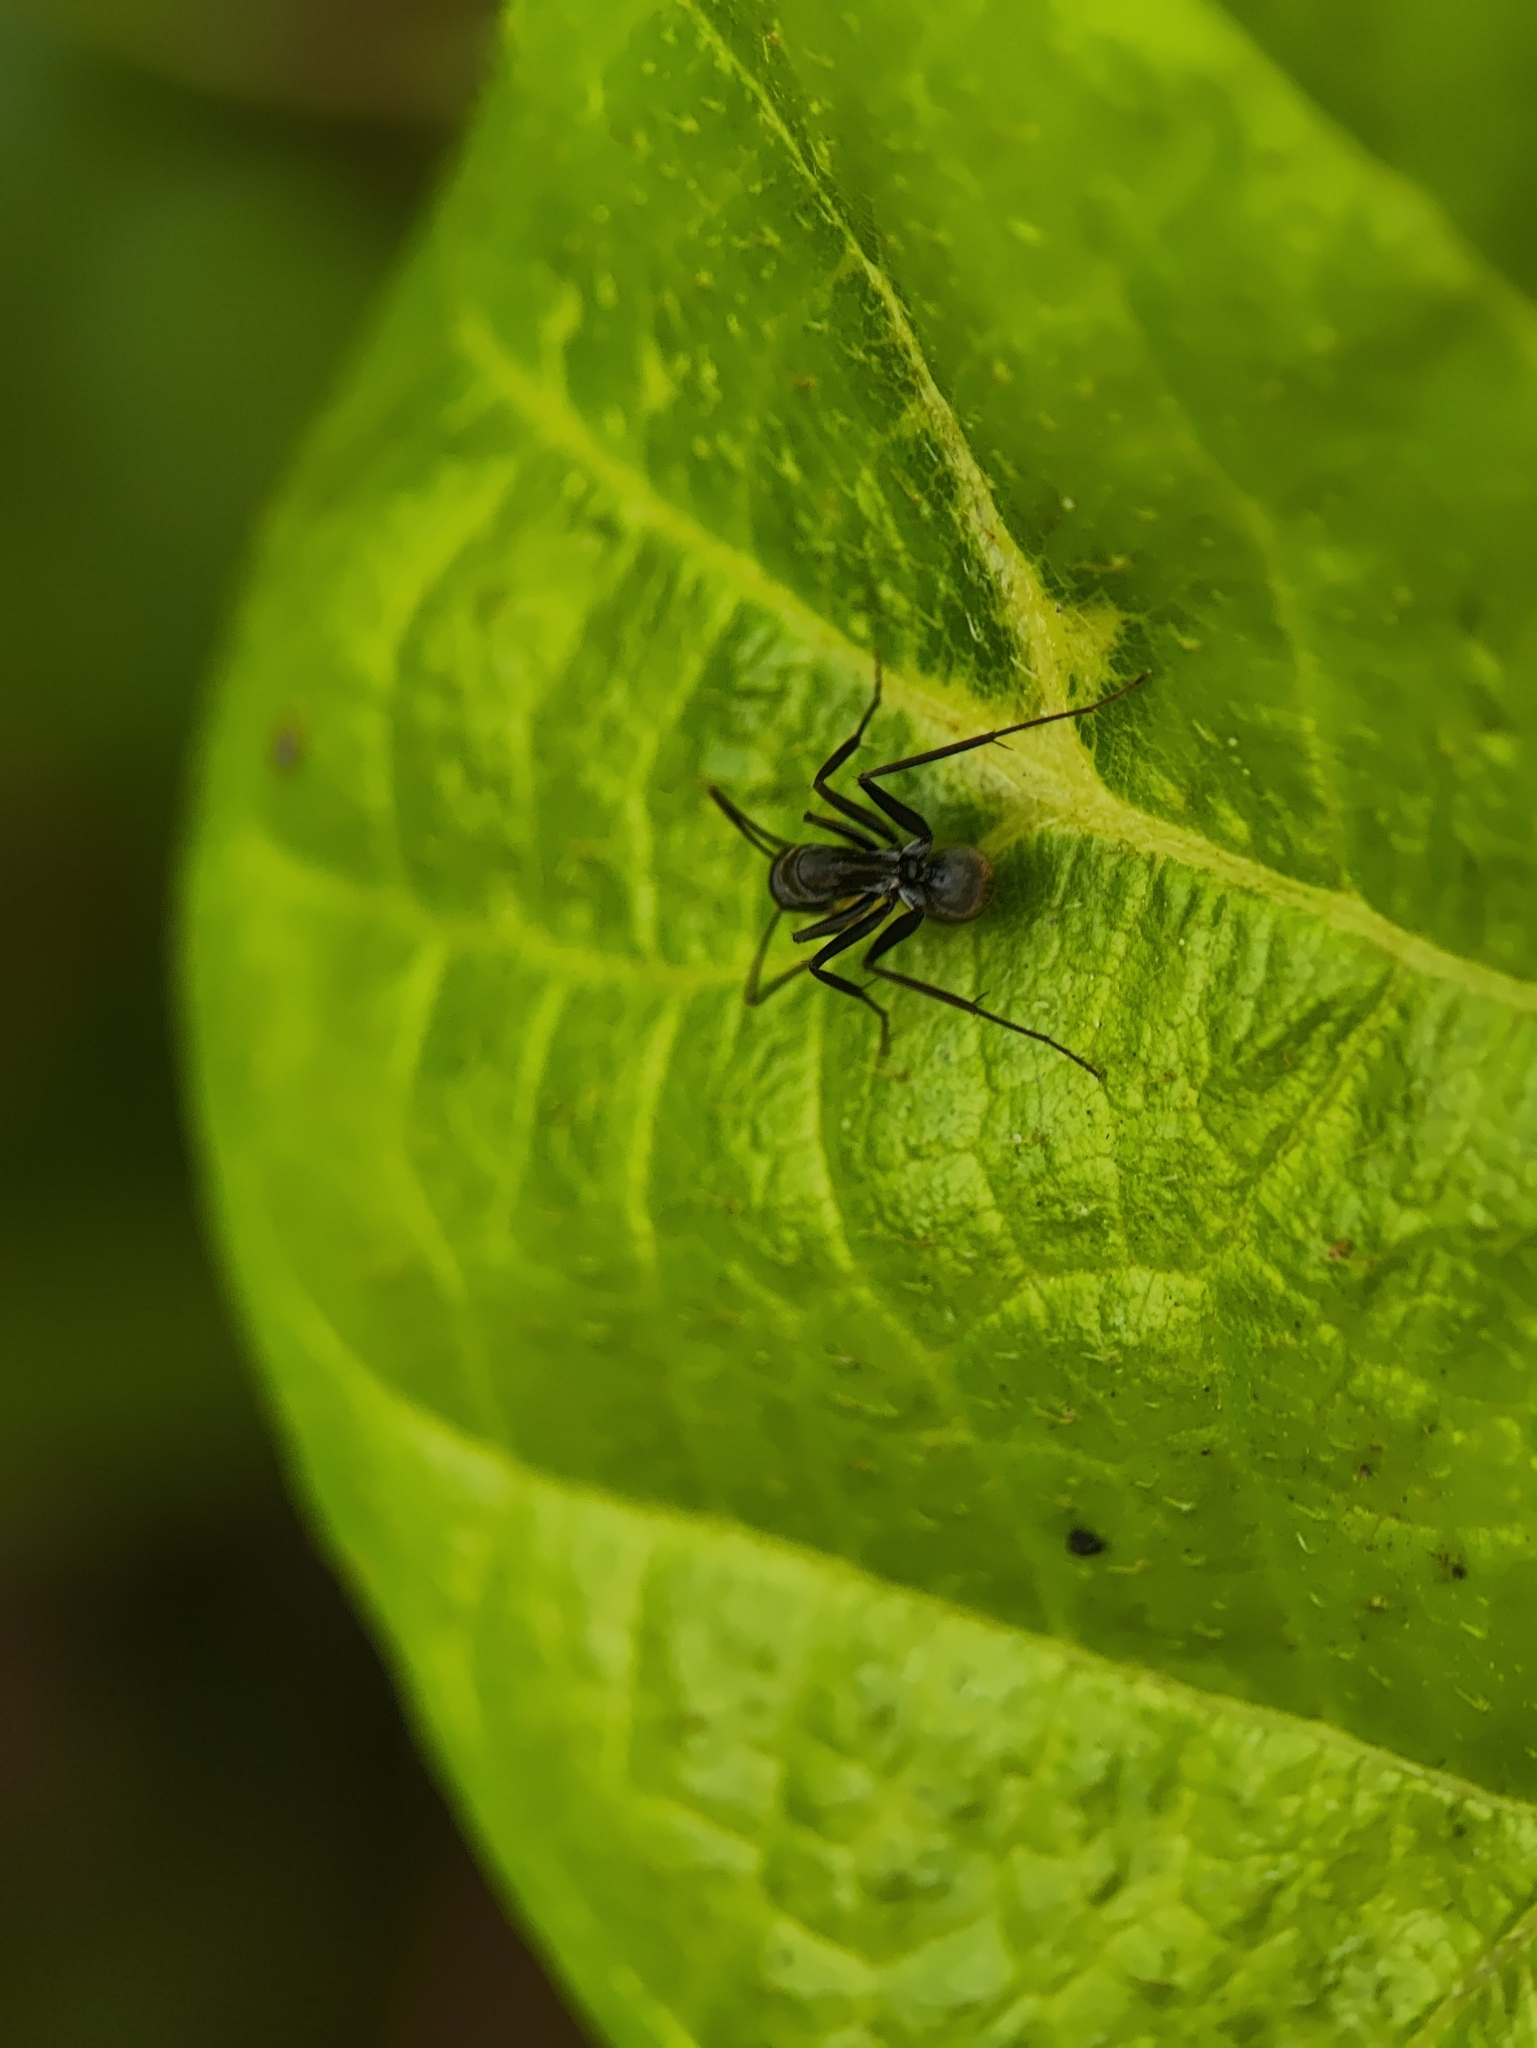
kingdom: Animalia
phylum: Arthropoda
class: Insecta
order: Hymenoptera
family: Formicidae
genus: Camponotus
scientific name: Camponotus parius
